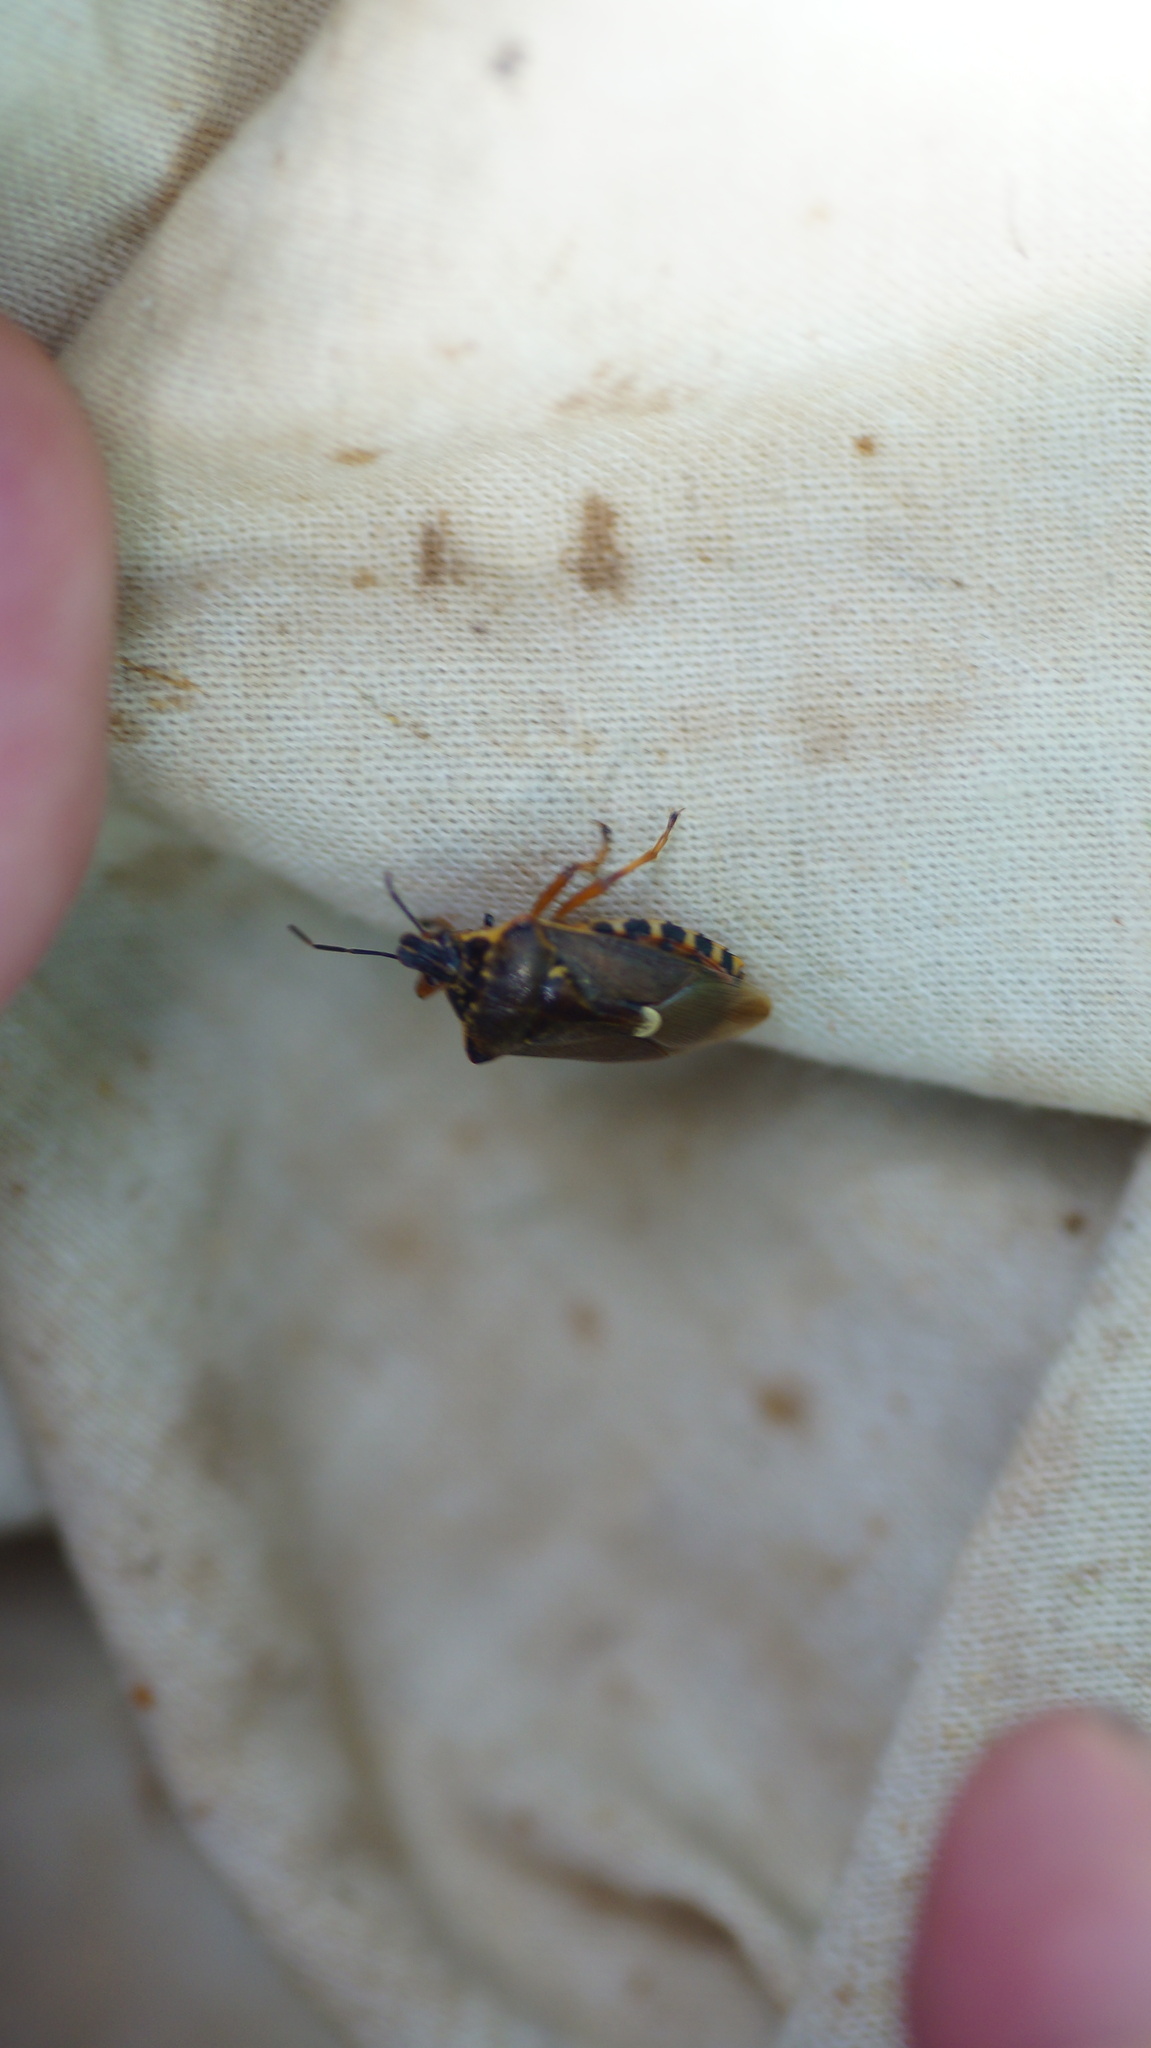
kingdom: Animalia
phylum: Arthropoda
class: Insecta
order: Hemiptera
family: Pentatomidae
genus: Pinthaeus
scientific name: Pinthaeus sanguinipes
